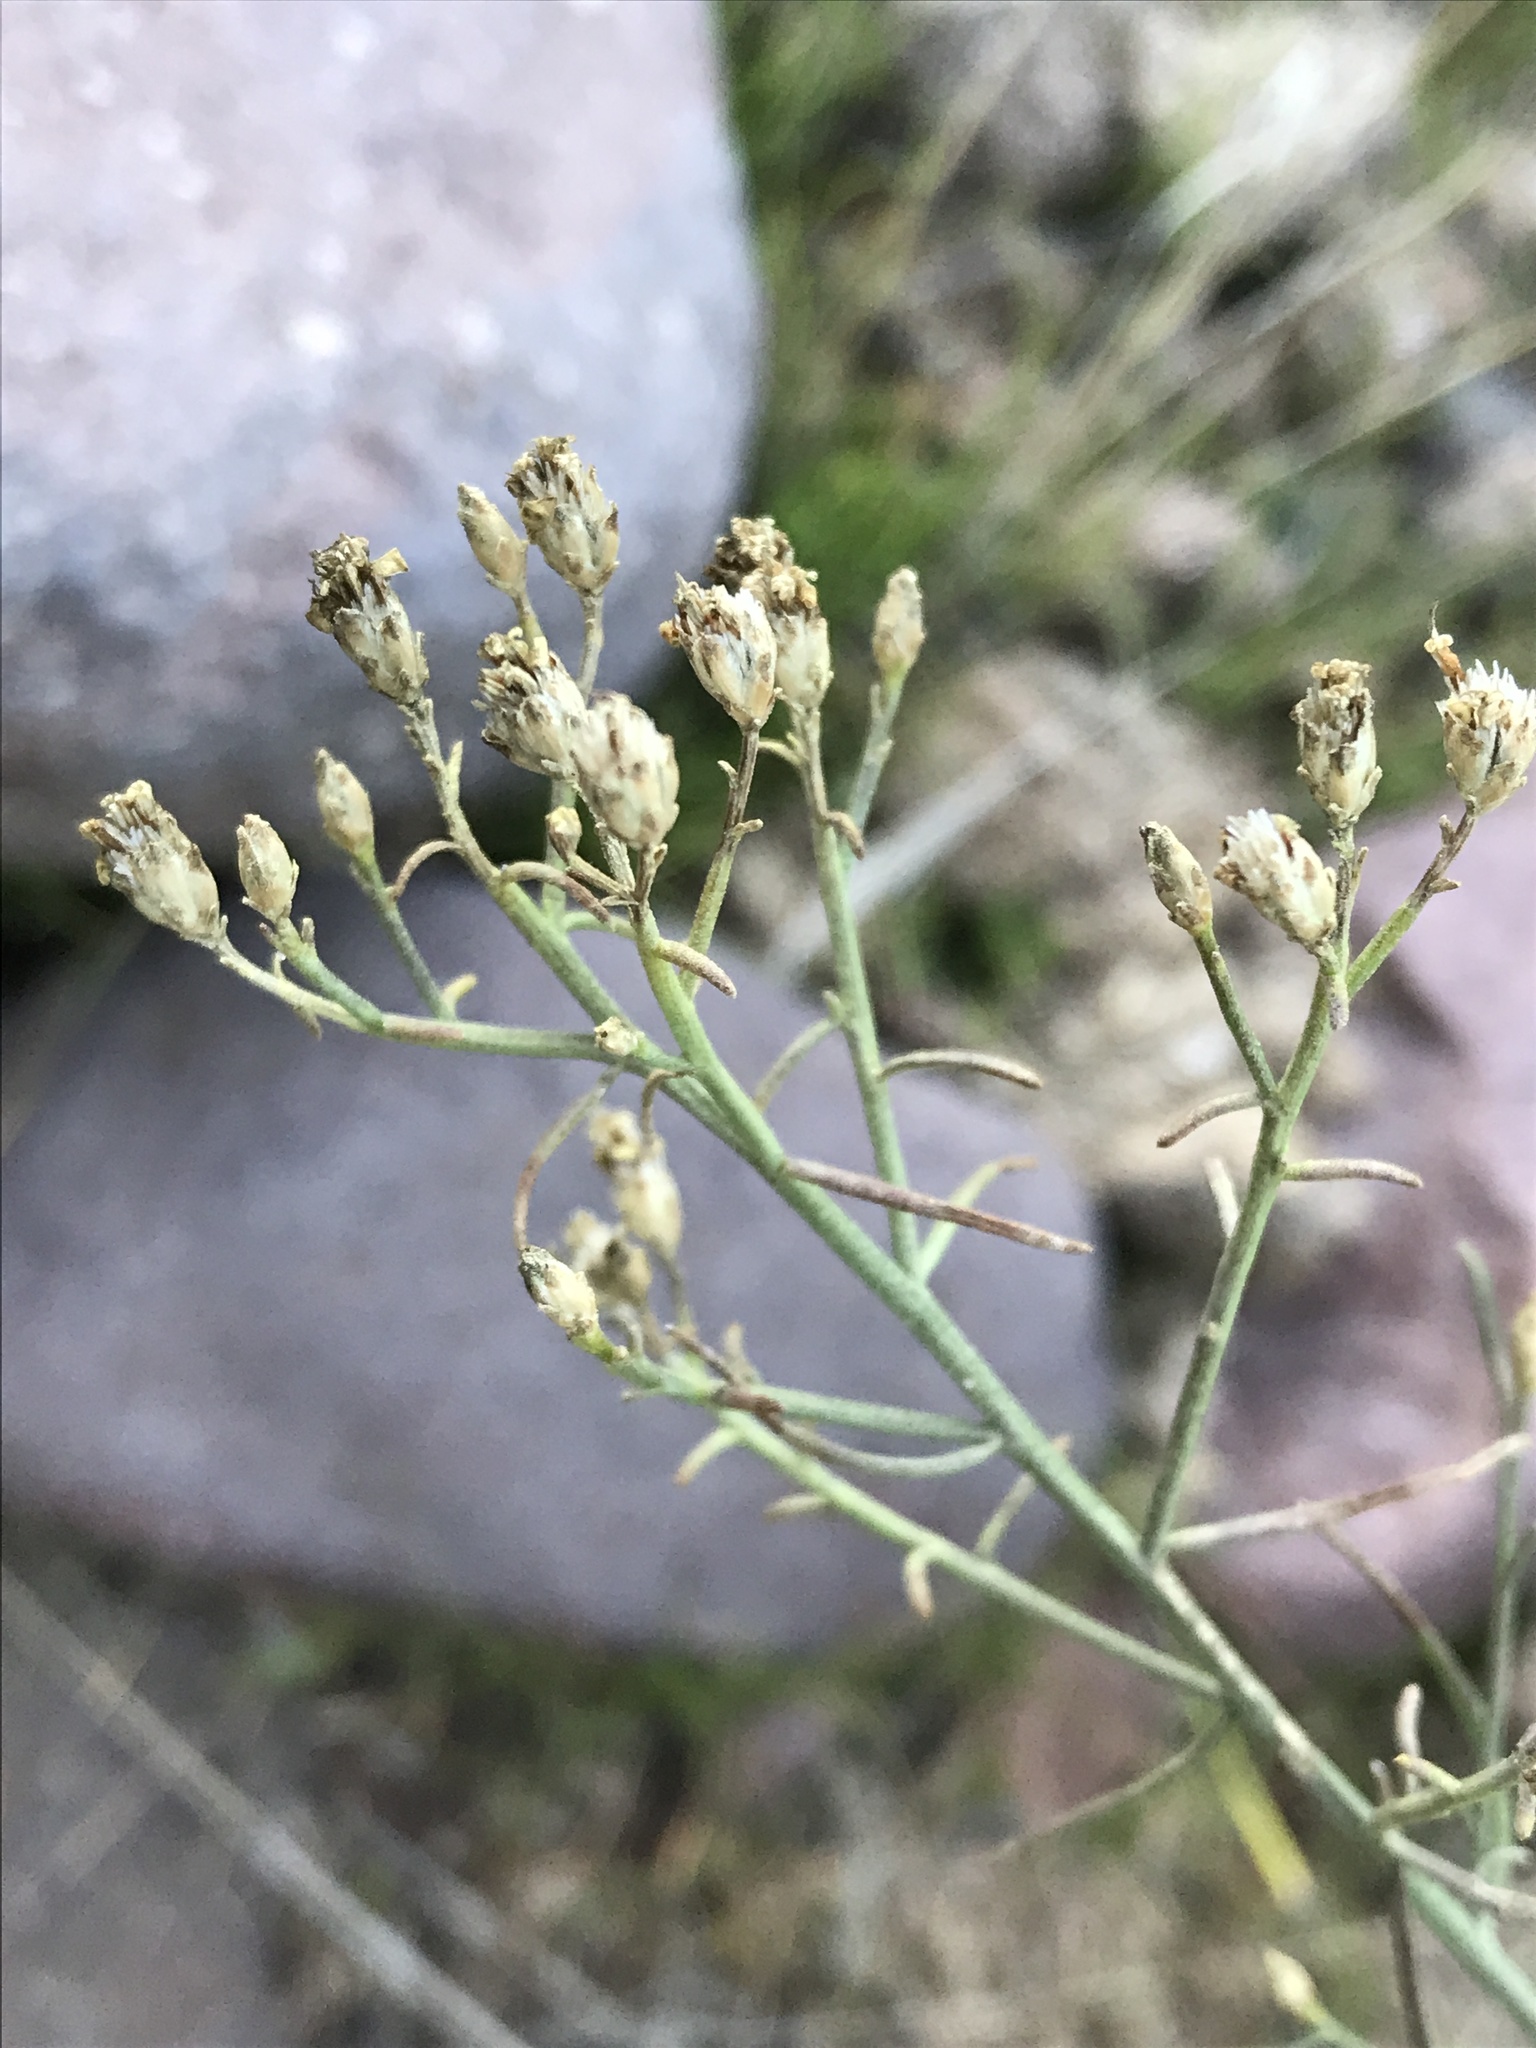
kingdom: Plantae
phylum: Tracheophyta
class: Magnoliopsida
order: Asterales
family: Asteraceae
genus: Gutierrezia
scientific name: Gutierrezia sarothrae
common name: Broom snakeweed
